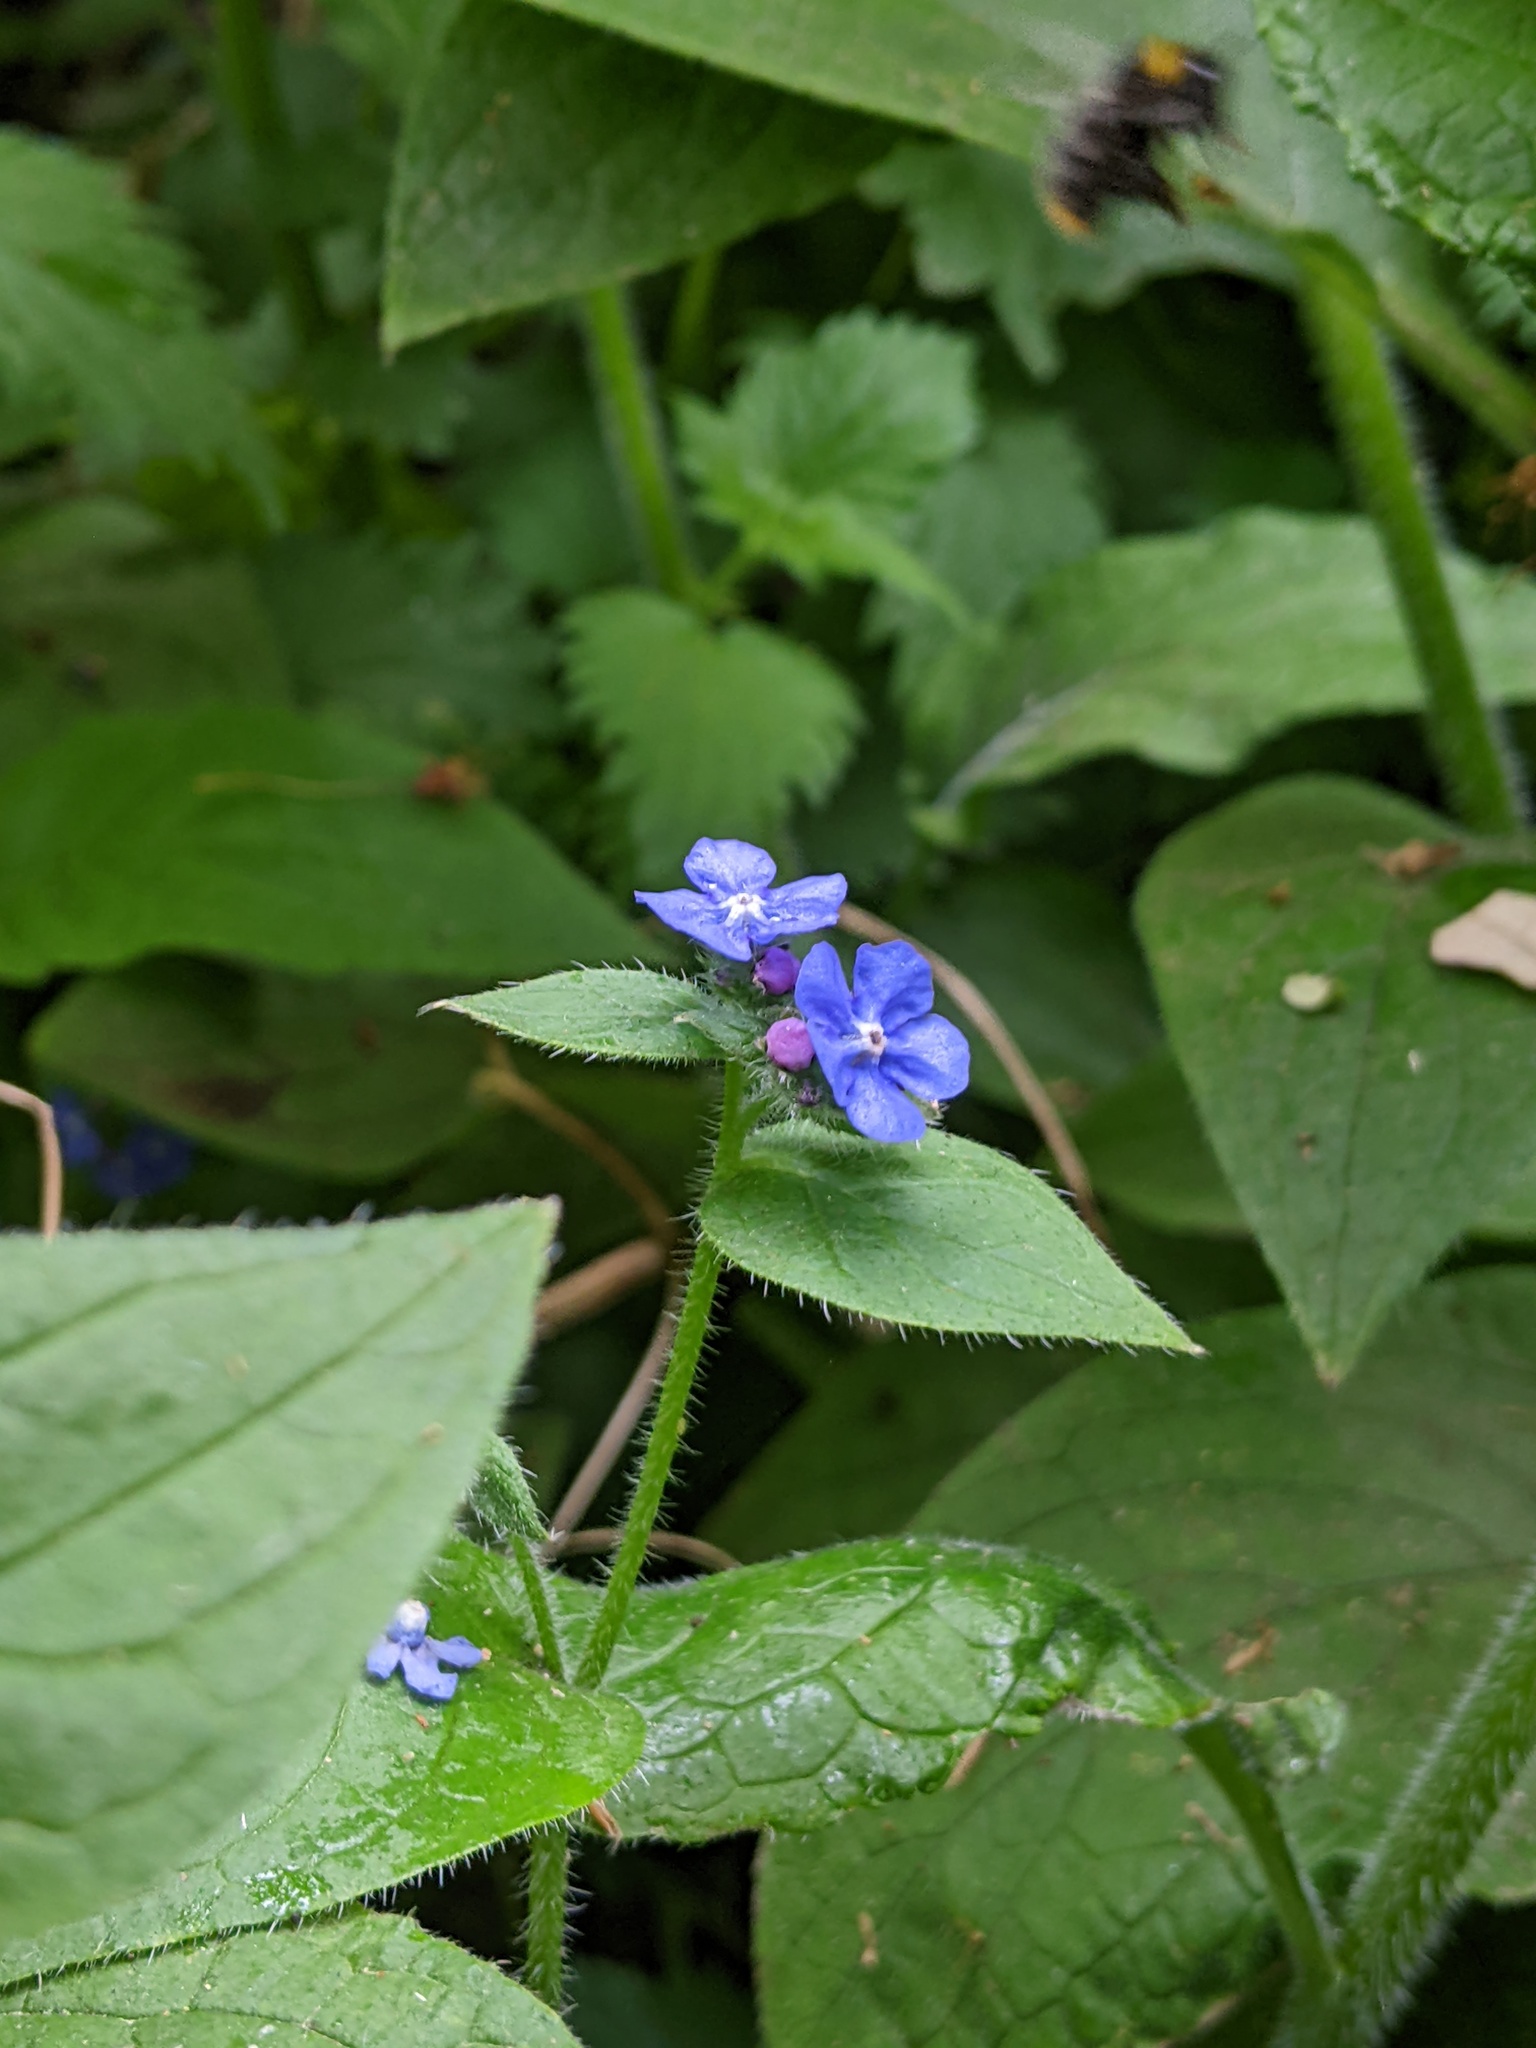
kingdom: Plantae
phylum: Tracheophyta
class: Magnoliopsida
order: Boraginales
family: Boraginaceae
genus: Pentaglottis
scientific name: Pentaglottis sempervirens
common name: Green alkanet
